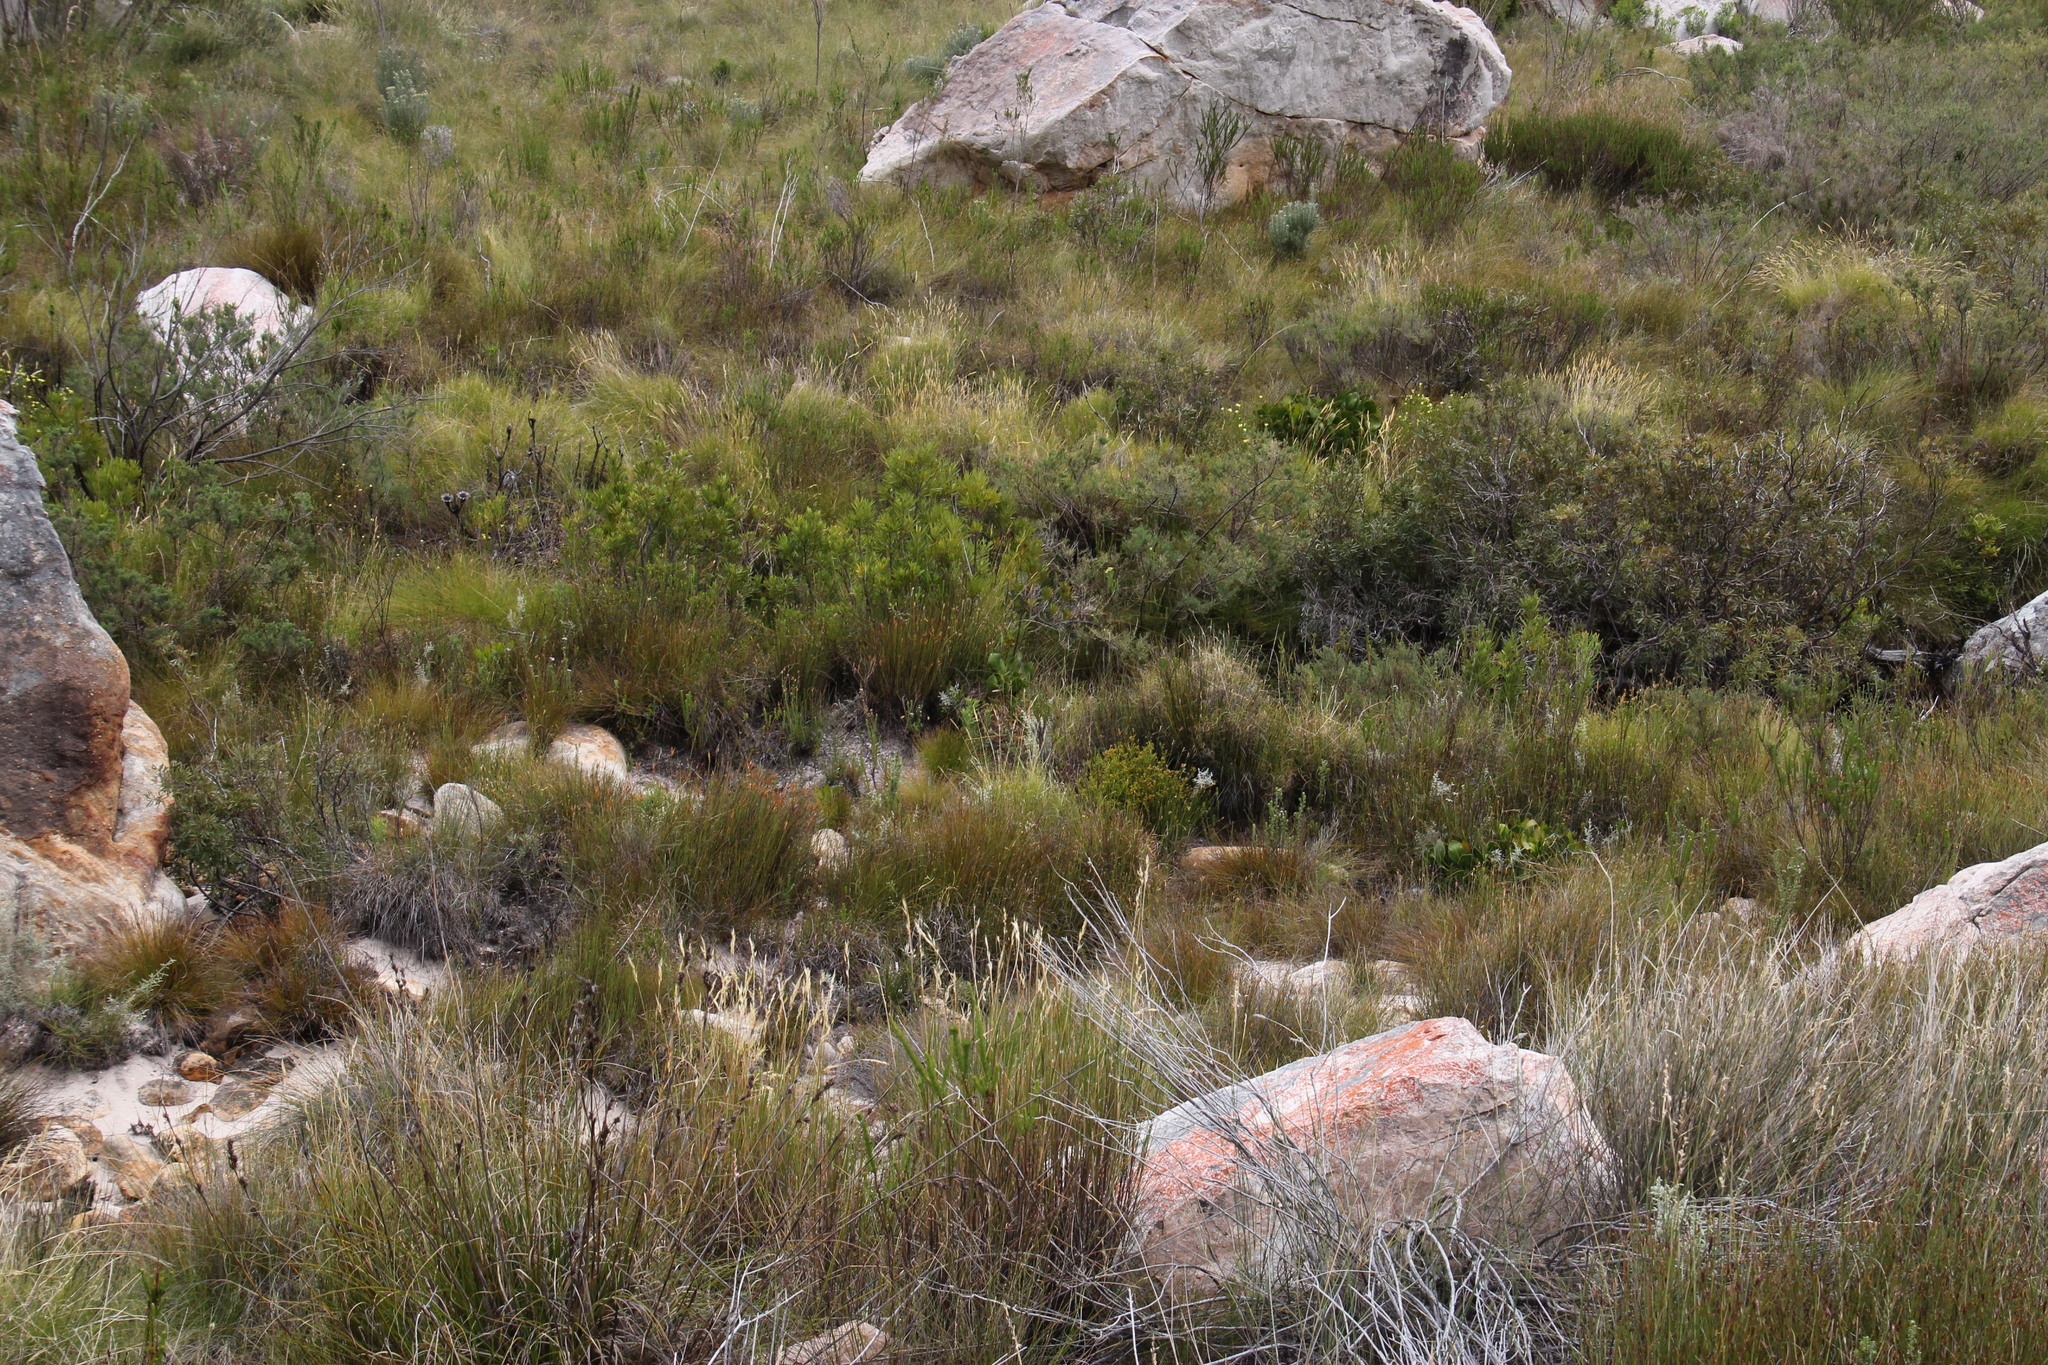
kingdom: Plantae
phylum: Tracheophyta
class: Magnoliopsida
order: Proteales
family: Proteaceae
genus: Protea
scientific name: Protea cynaroides
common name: King protea
